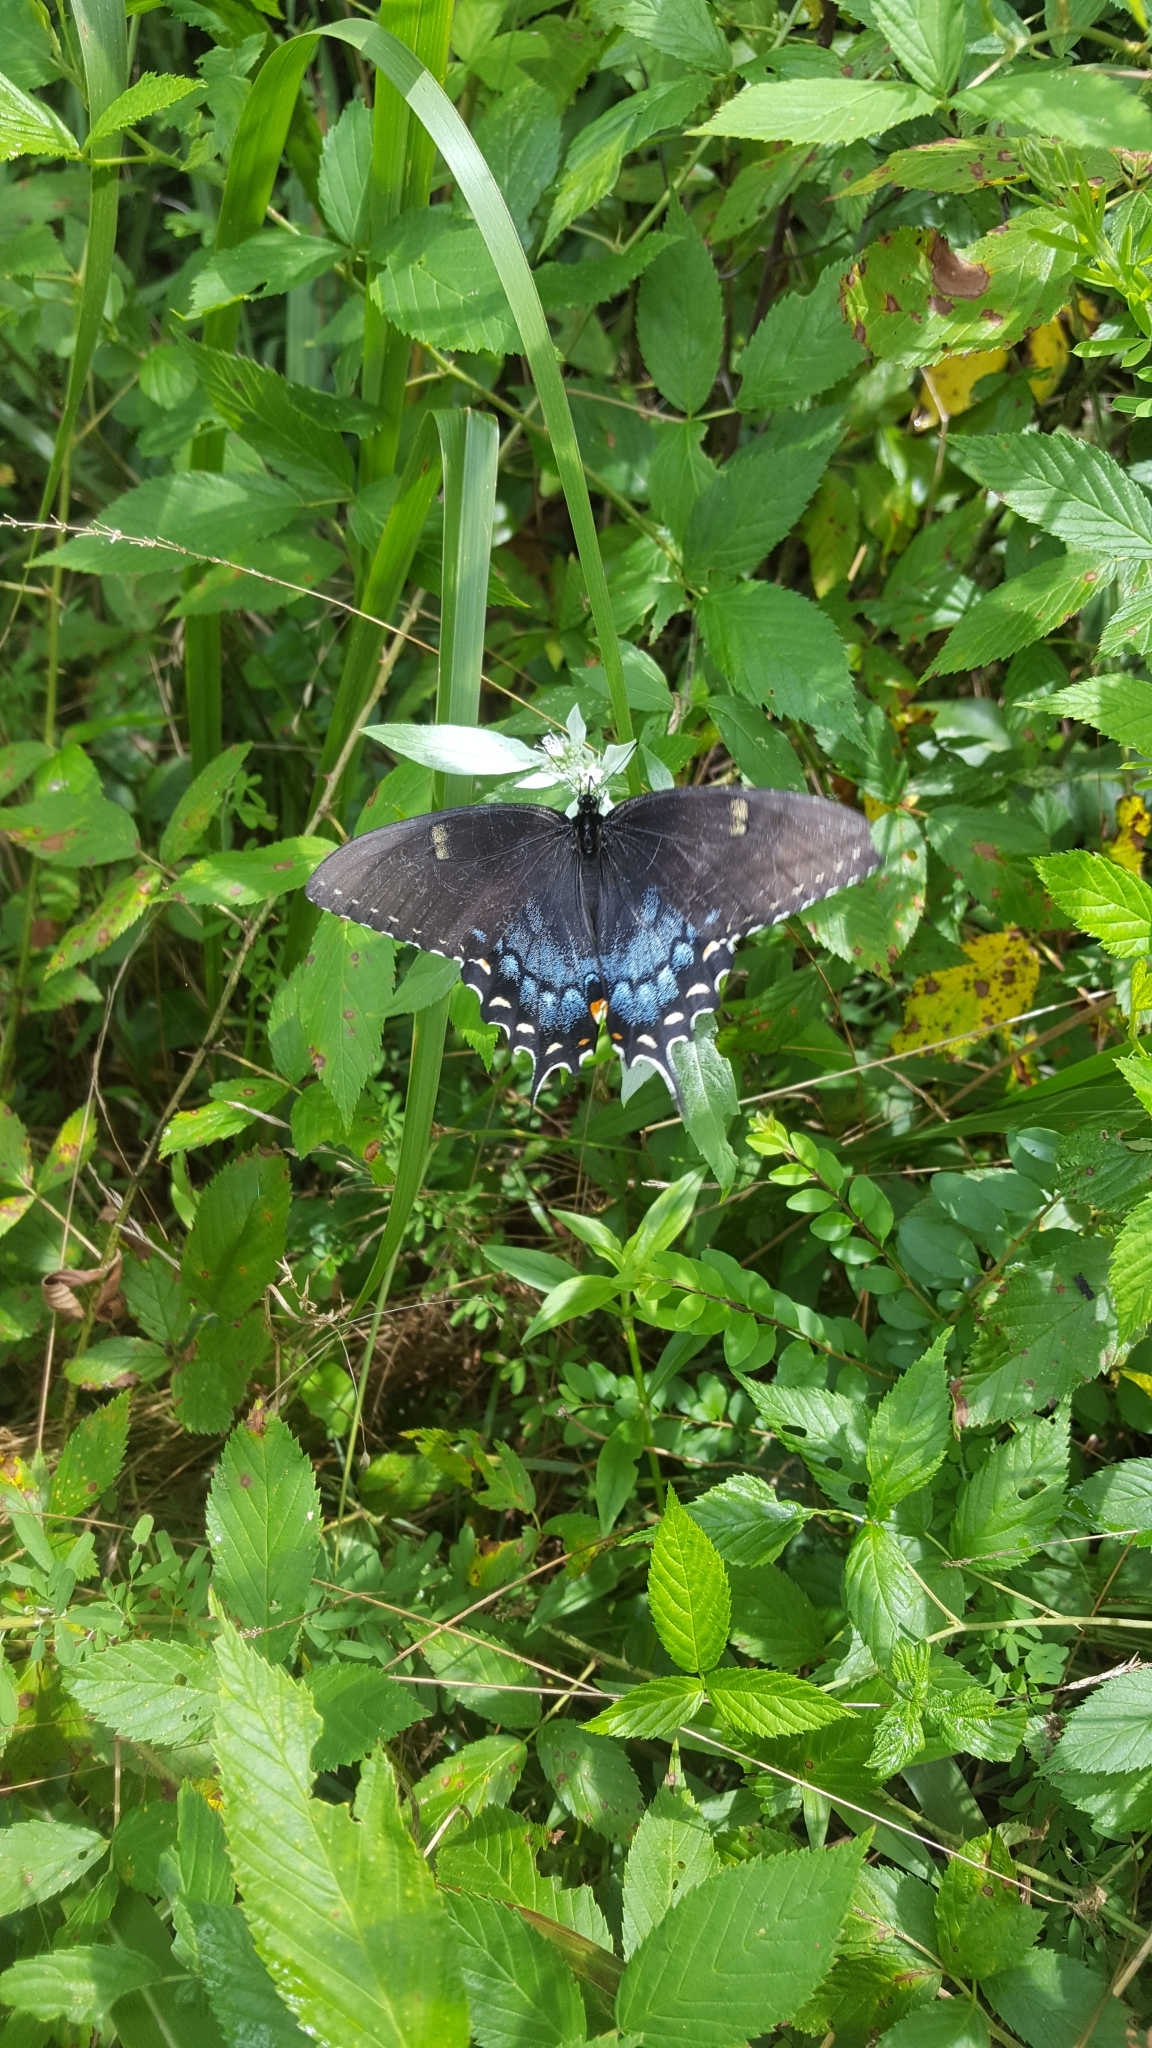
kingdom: Animalia
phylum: Arthropoda
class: Insecta
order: Lepidoptera
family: Papilionidae
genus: Papilio
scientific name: Papilio glaucus
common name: Tiger swallowtail
